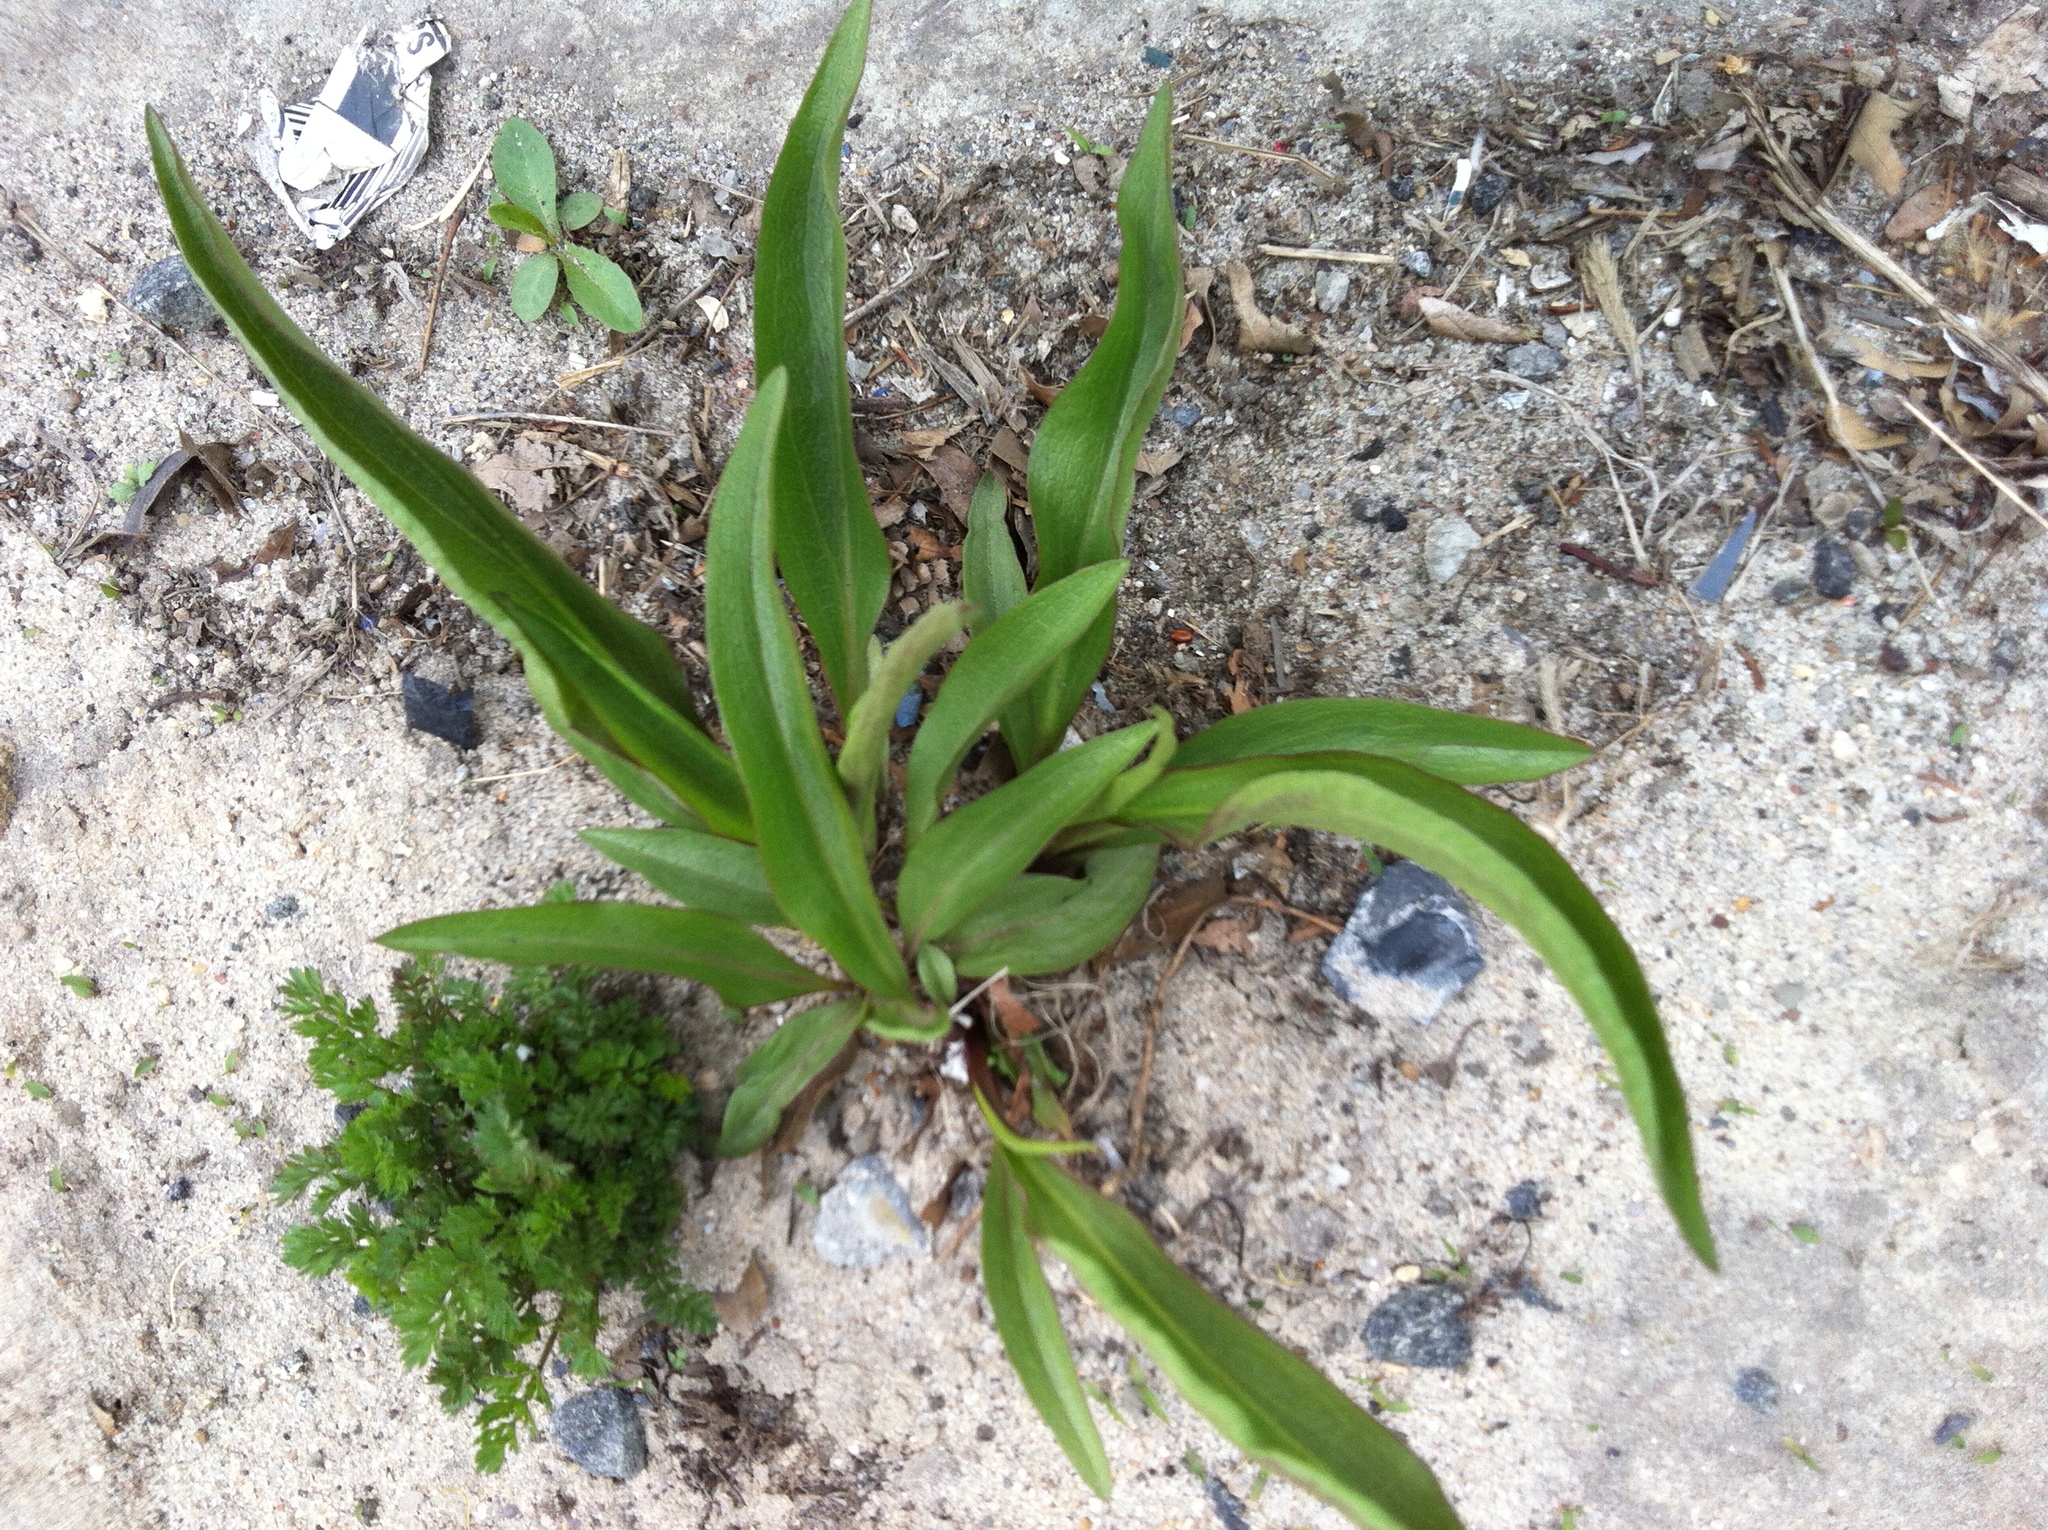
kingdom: Plantae
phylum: Tracheophyta
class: Magnoliopsida
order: Asterales
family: Asteraceae
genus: Solidago
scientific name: Solidago sempervirens
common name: Salt-marsh goldenrod
